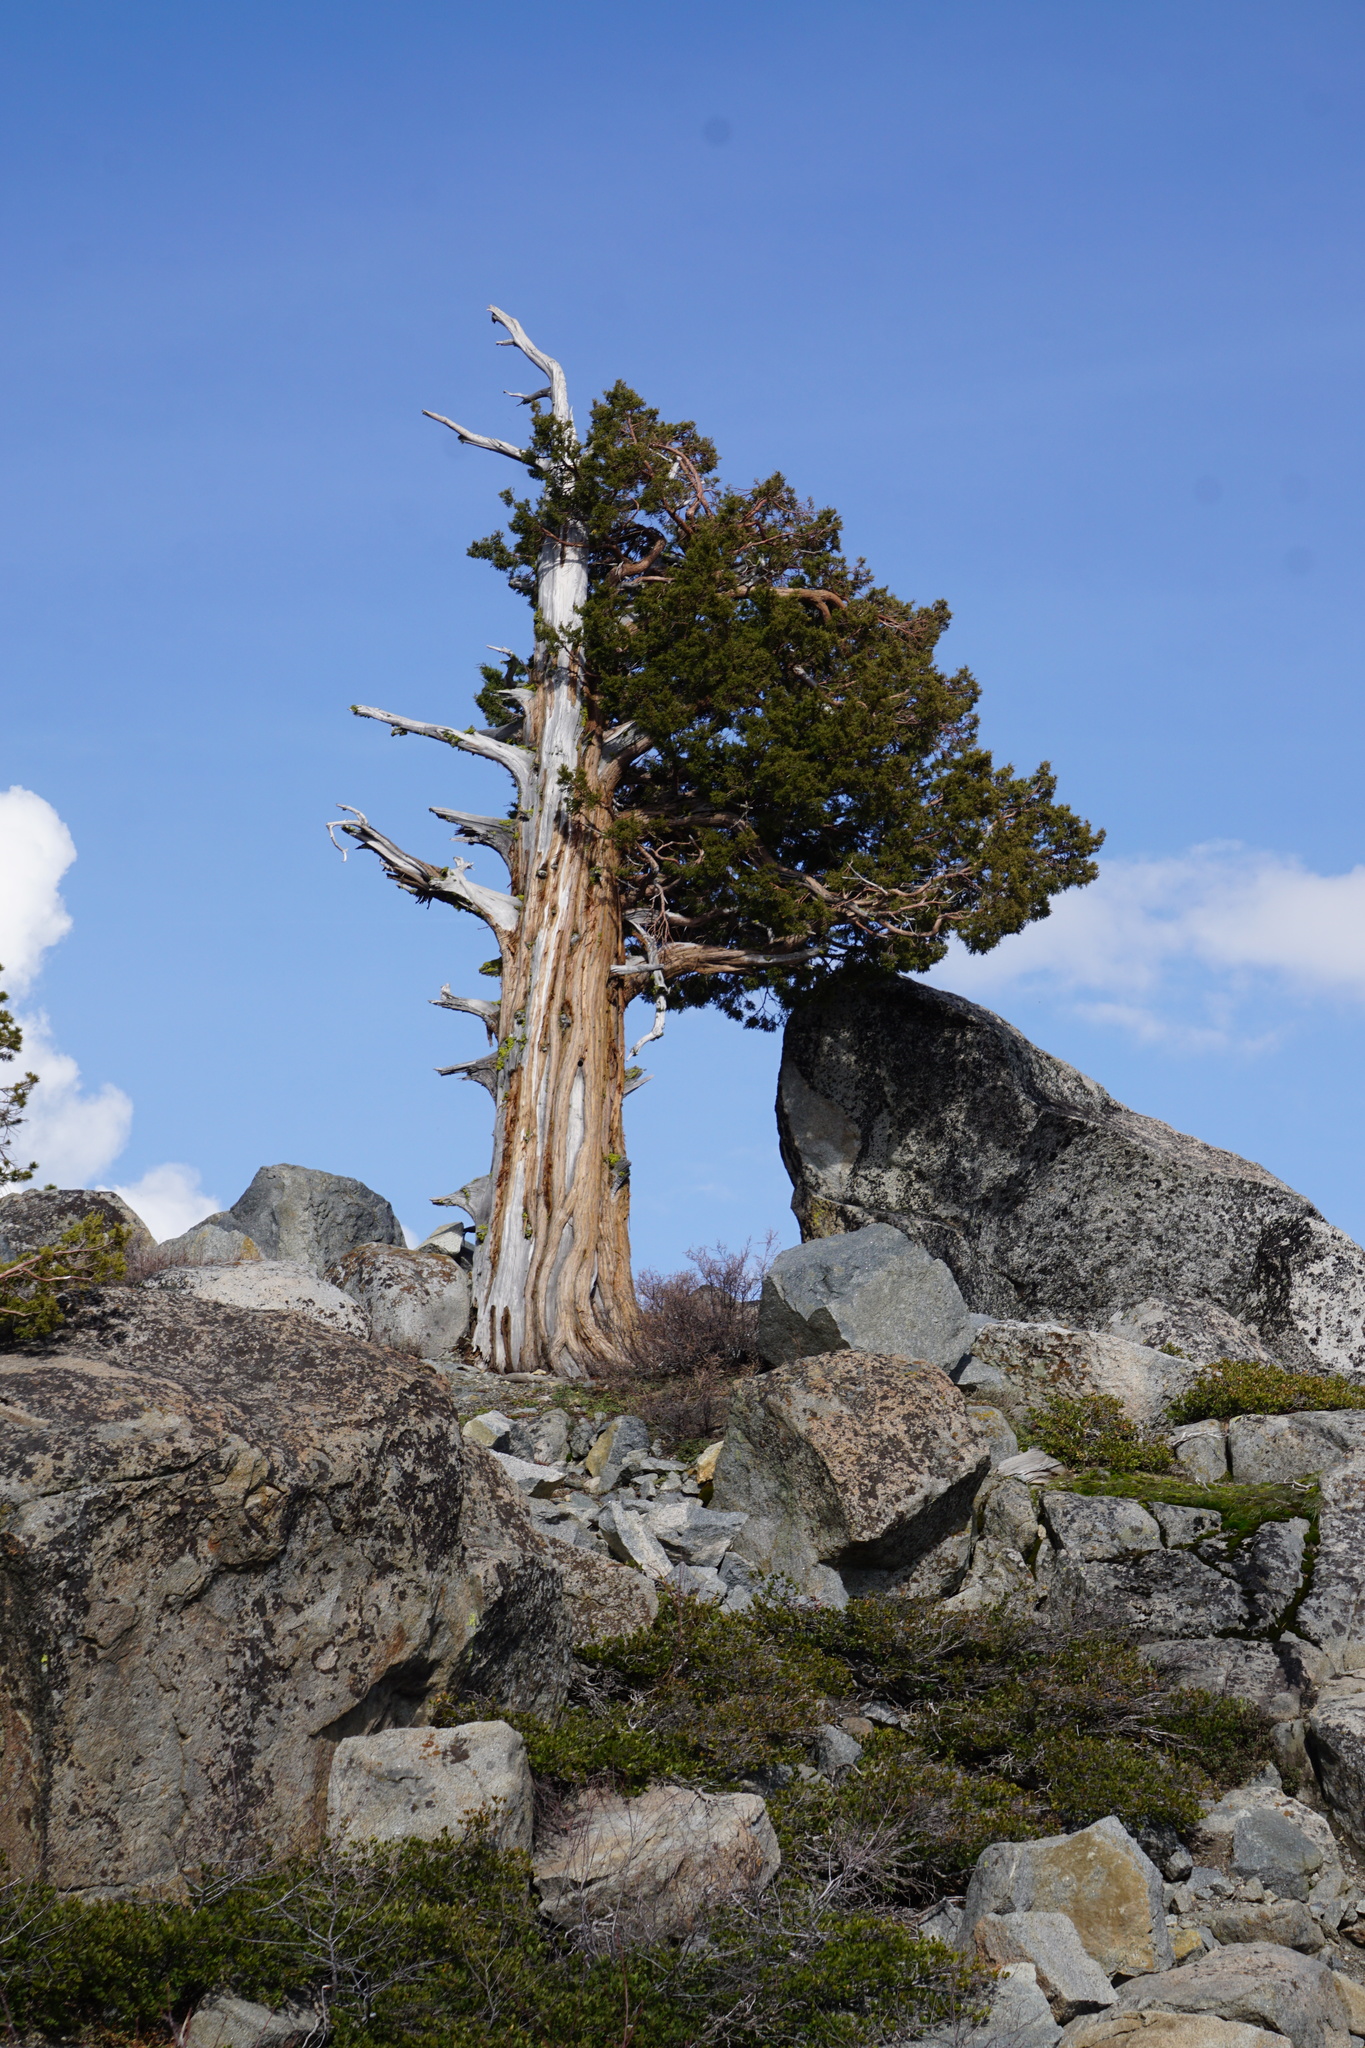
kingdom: Plantae
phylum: Tracheophyta
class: Pinopsida
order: Pinales
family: Cupressaceae
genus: Juniperus
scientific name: Juniperus occidentalis
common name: Western juniper
